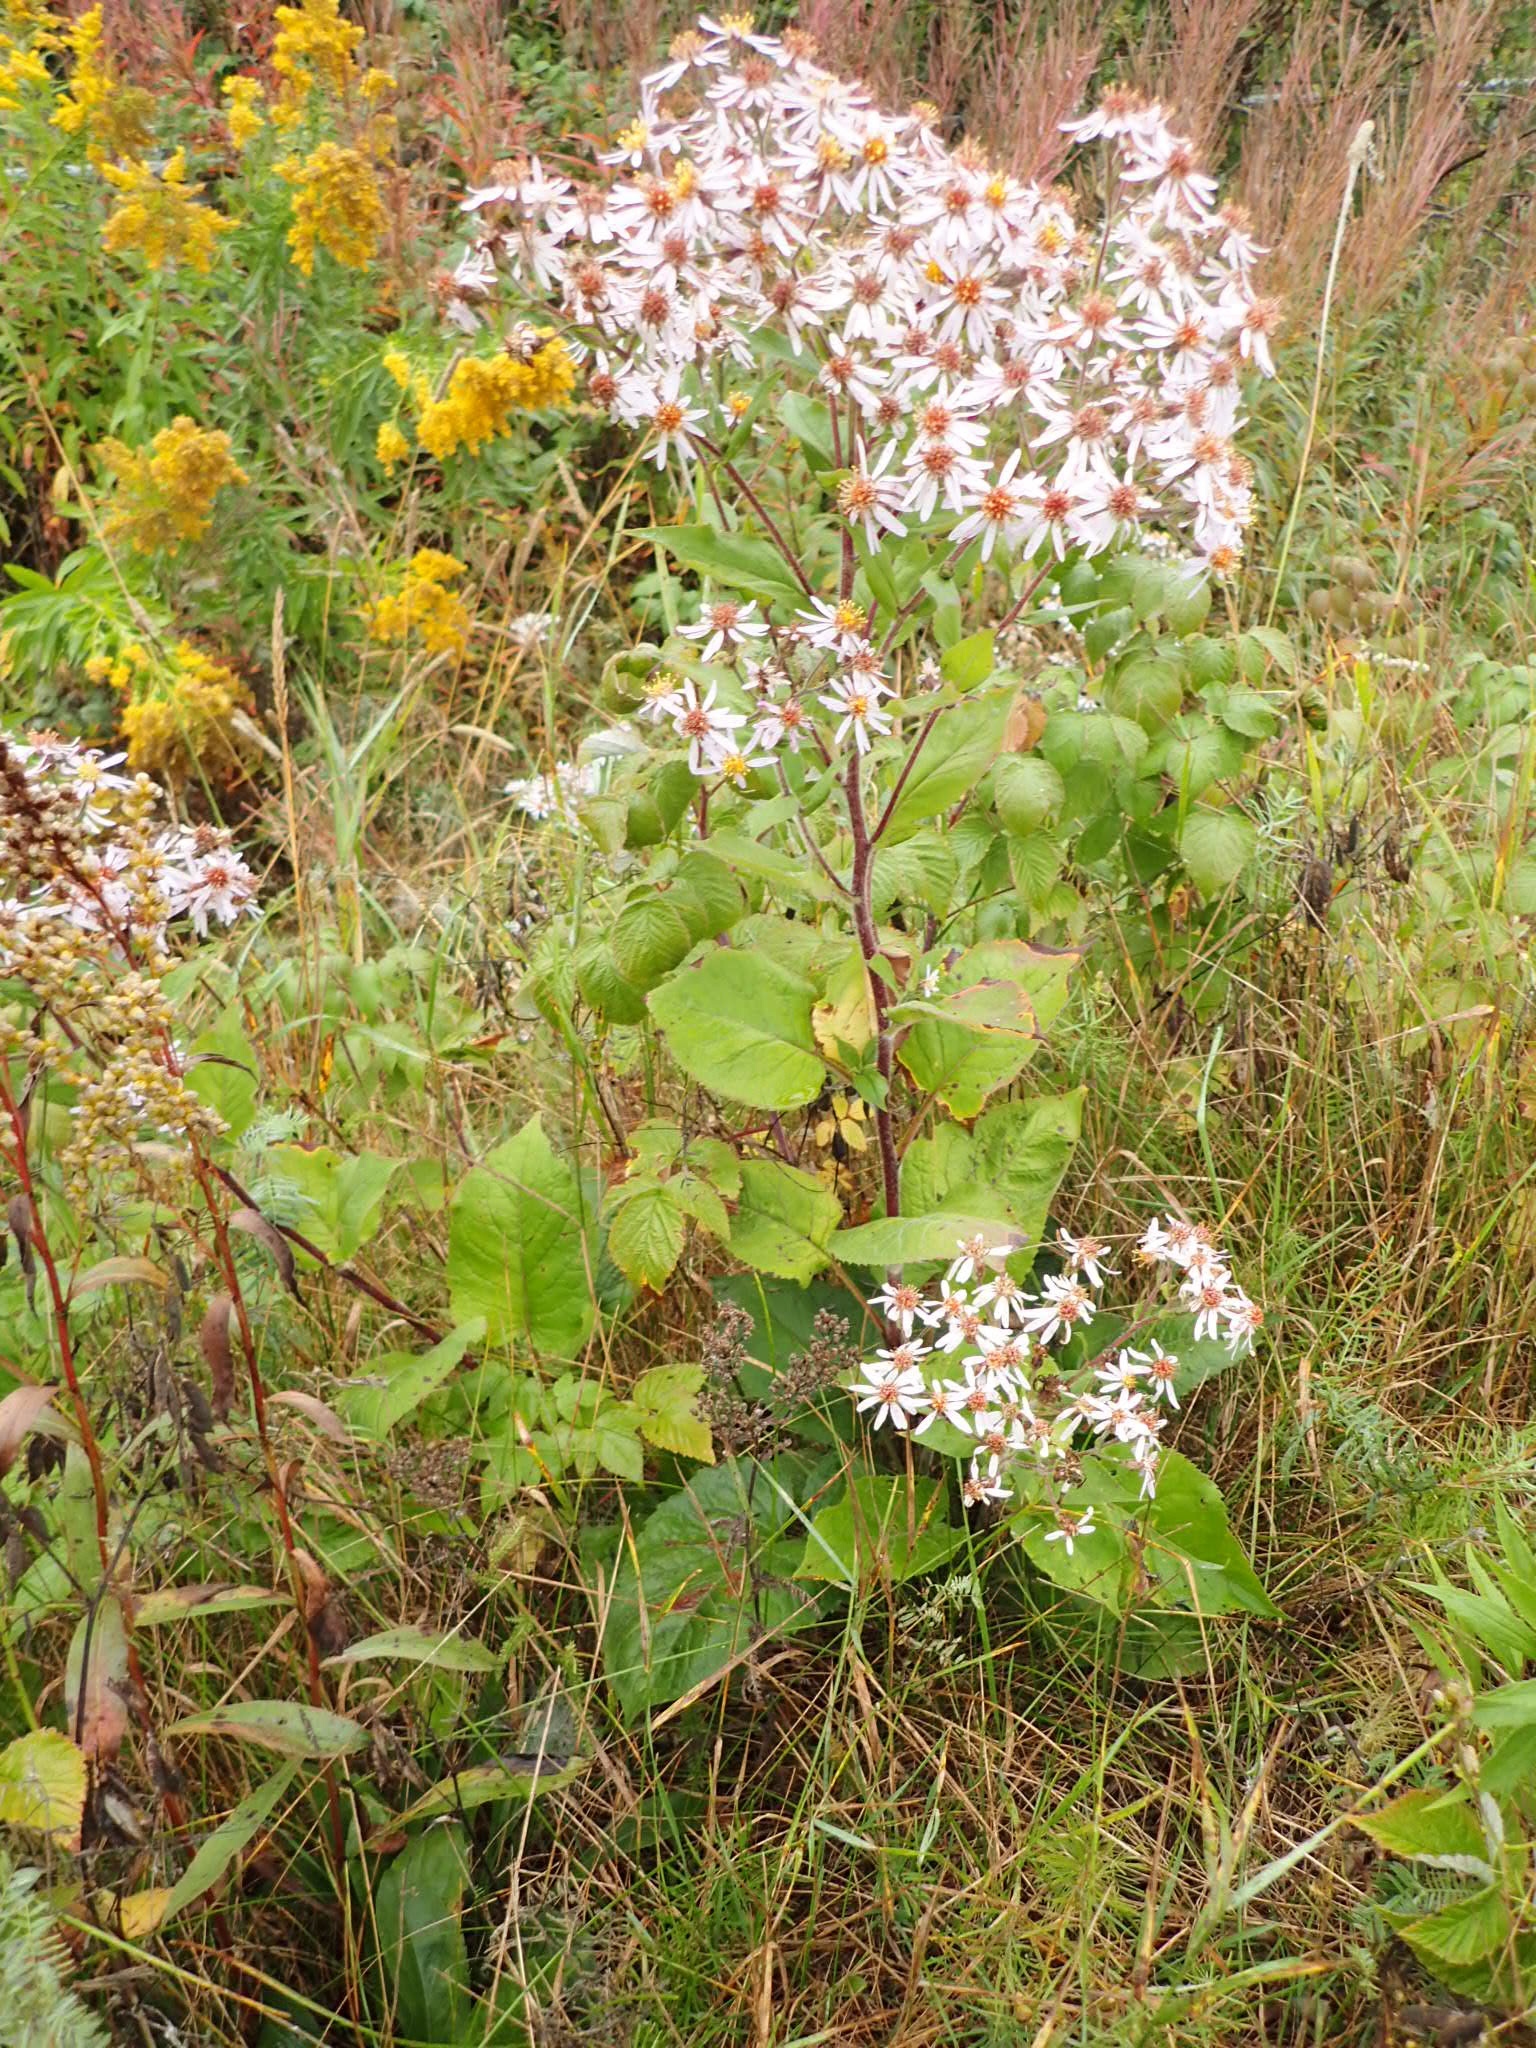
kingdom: Plantae
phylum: Tracheophyta
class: Magnoliopsida
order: Asterales
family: Asteraceae
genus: Eurybia
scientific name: Eurybia macrophylla
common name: Big-leaved aster
